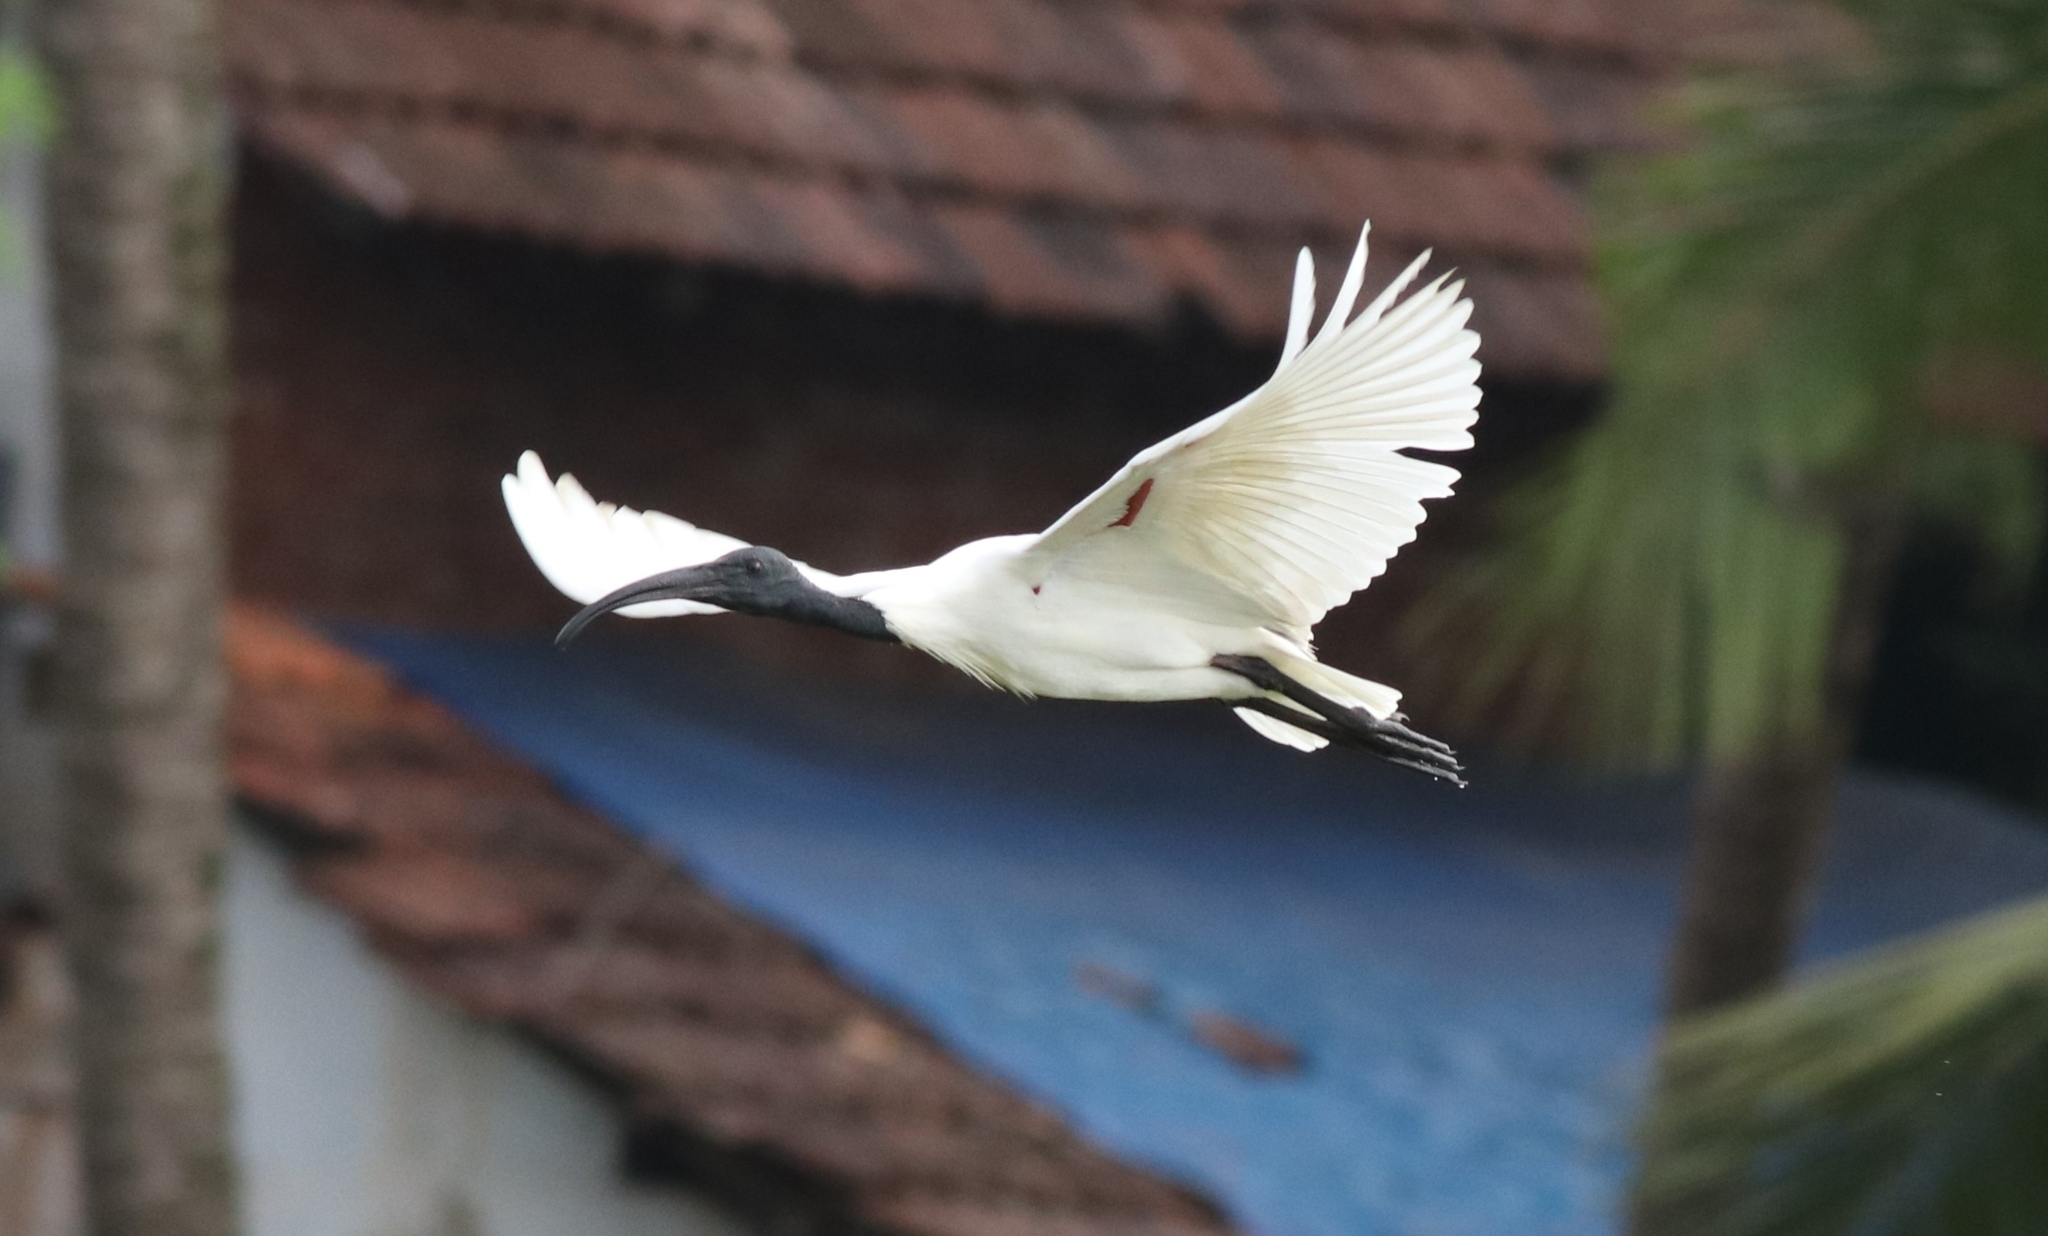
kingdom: Animalia
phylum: Chordata
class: Aves
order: Pelecaniformes
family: Threskiornithidae
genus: Threskiornis
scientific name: Threskiornis melanocephalus
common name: Black-headed ibis
